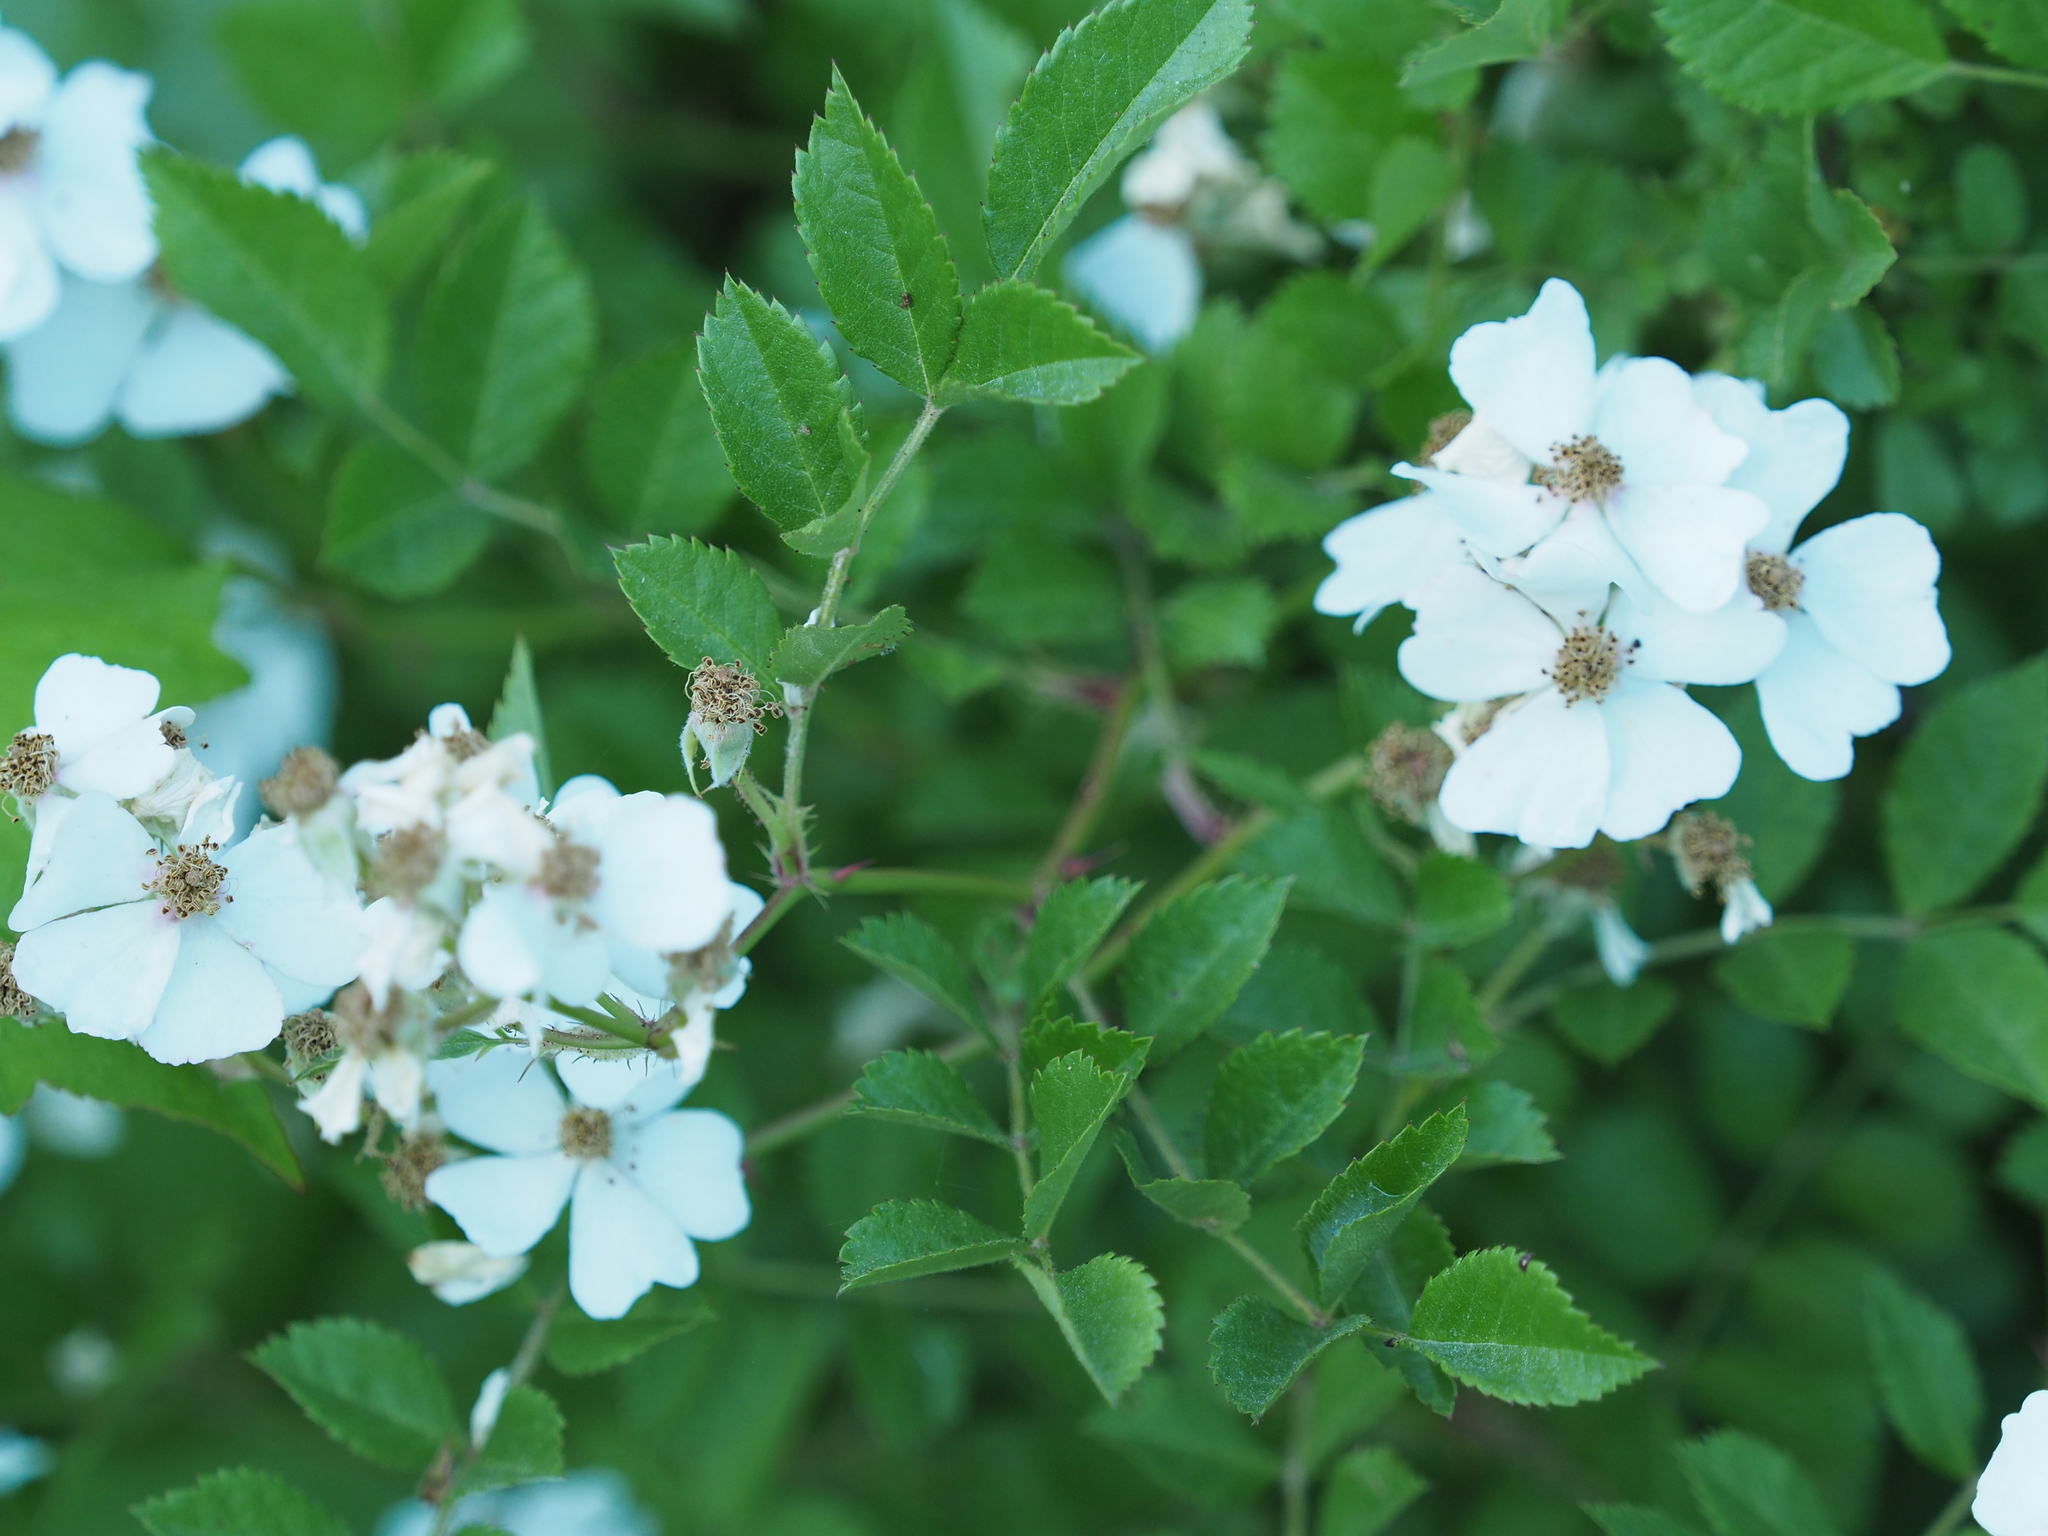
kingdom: Plantae
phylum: Tracheophyta
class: Magnoliopsida
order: Rosales
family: Rosaceae
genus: Rosa
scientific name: Rosa multiflora
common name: Multiflora rose
